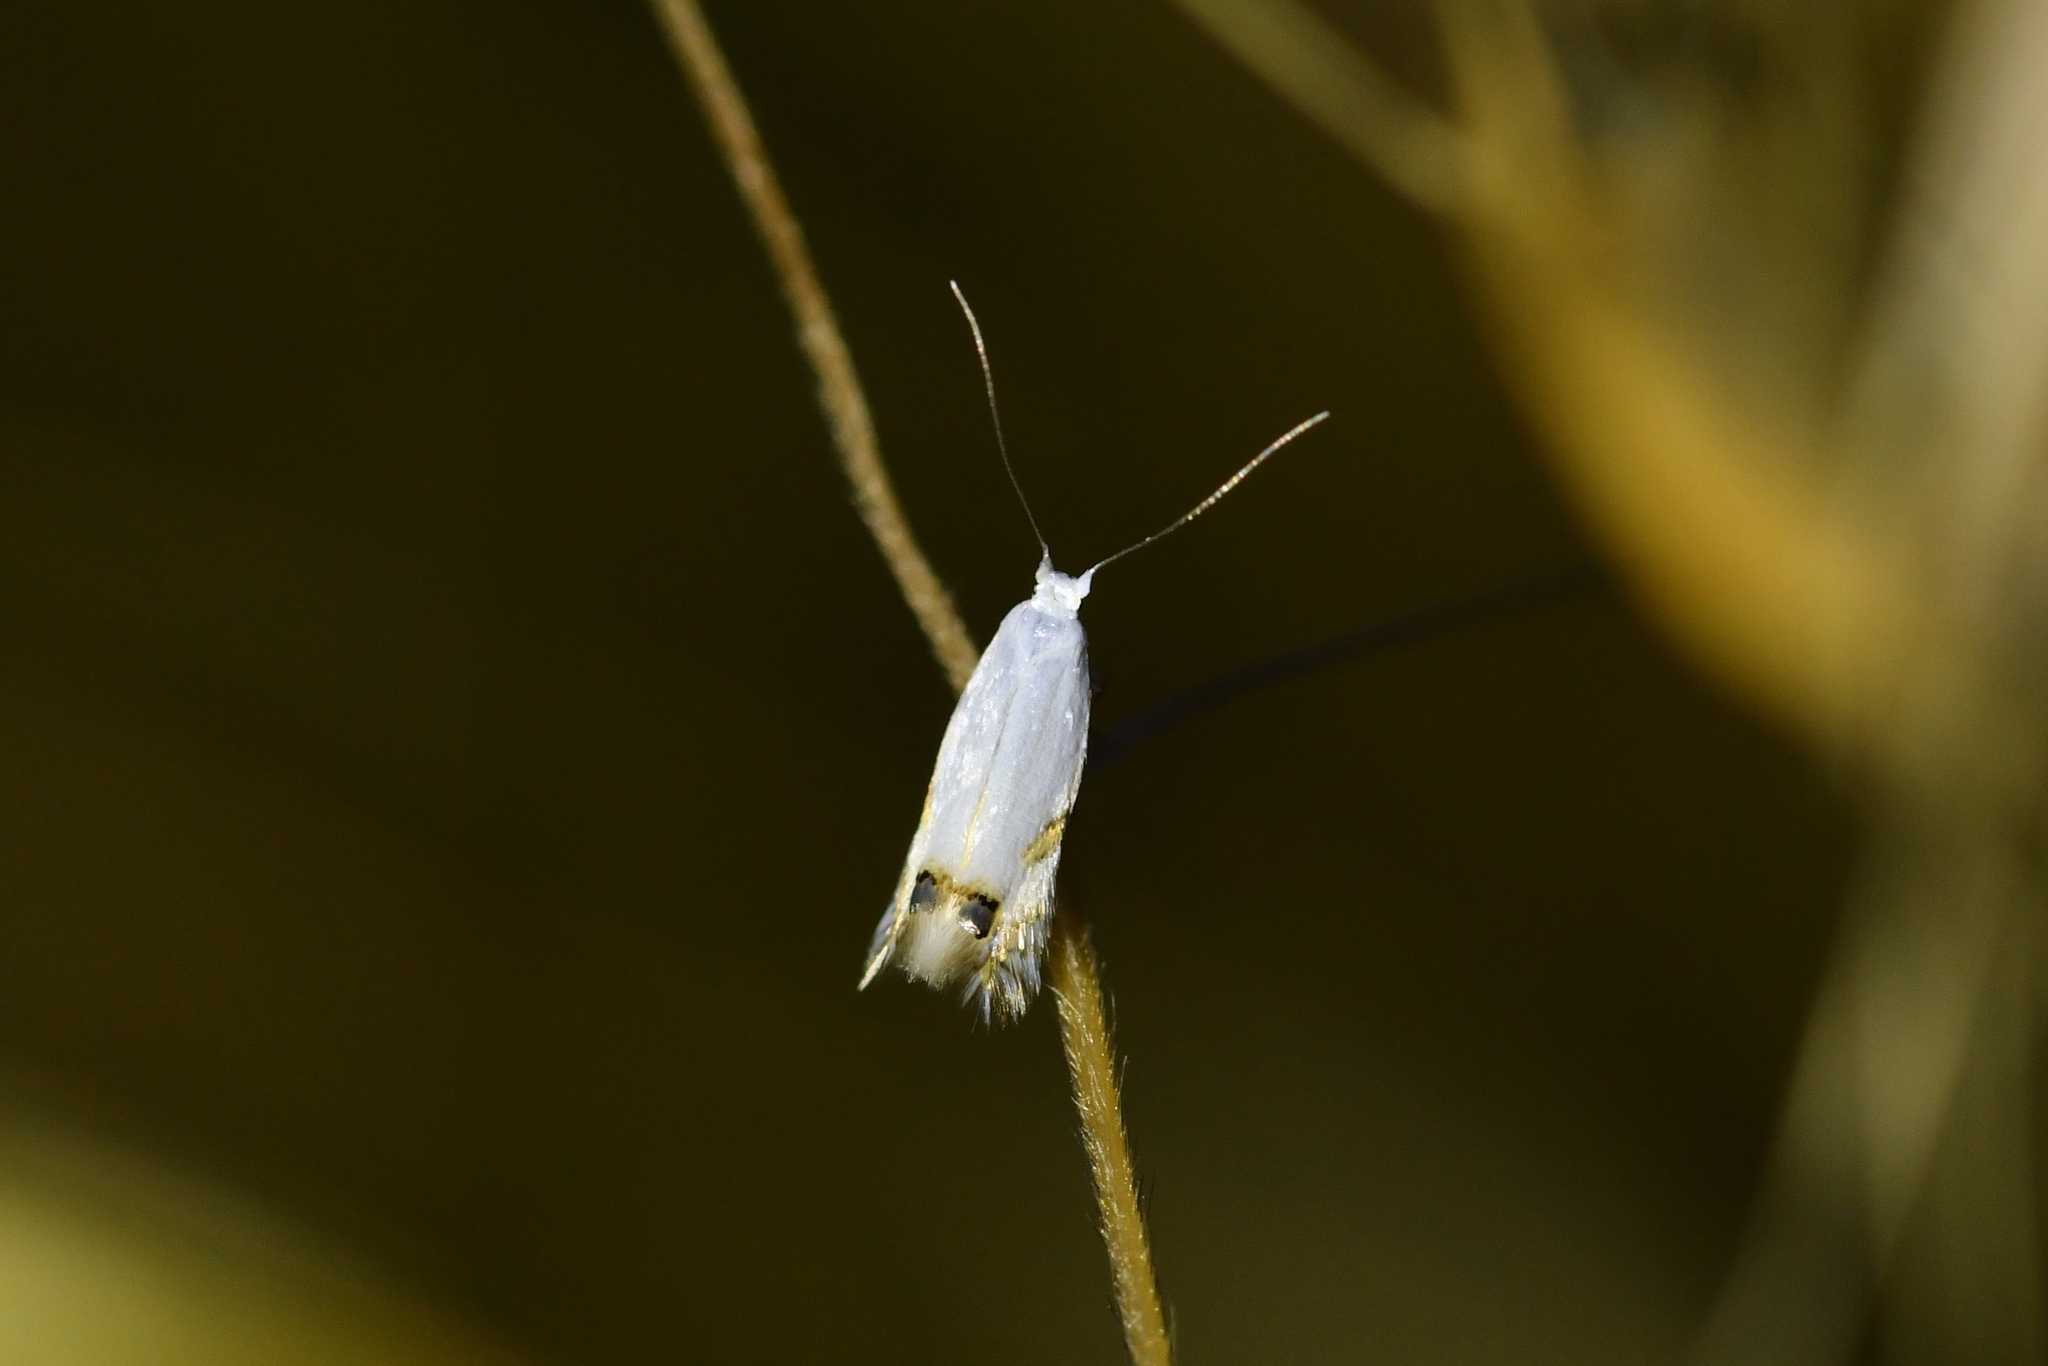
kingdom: Animalia
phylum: Arthropoda
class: Insecta
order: Lepidoptera
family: Lyonetiidae
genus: Leucoptera
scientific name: Leucoptera spartifoliella
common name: Scotch broom twig miner
